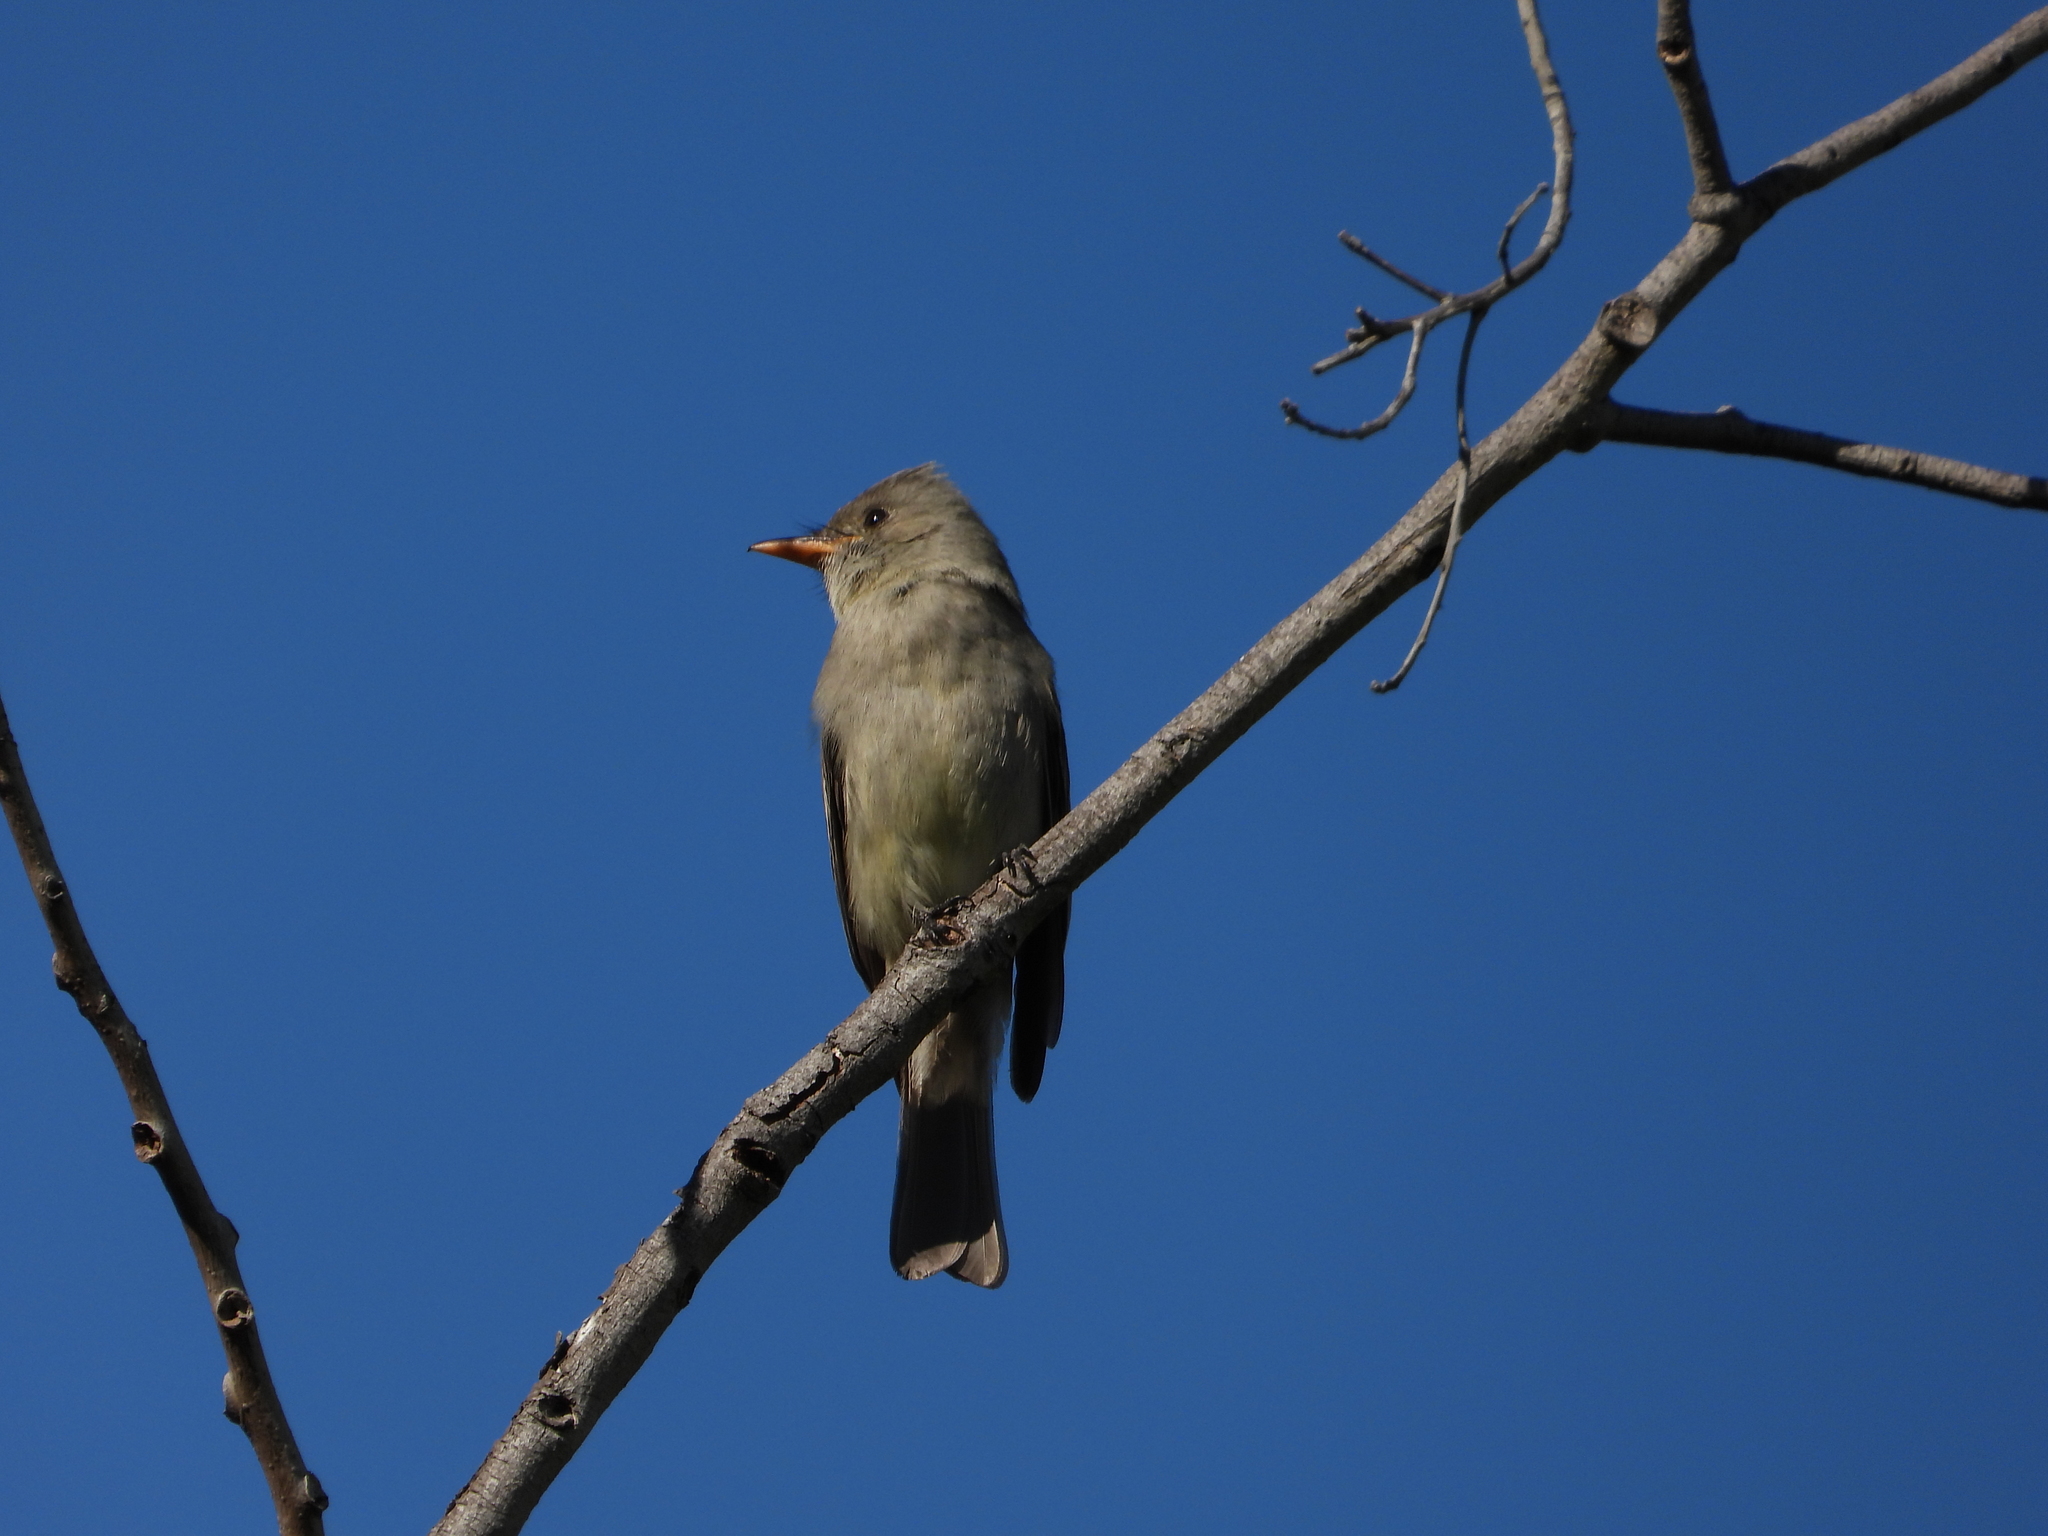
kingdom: Animalia
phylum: Chordata
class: Aves
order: Passeriformes
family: Tyrannidae
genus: Contopus
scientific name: Contopus pertinax
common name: Greater pewee
